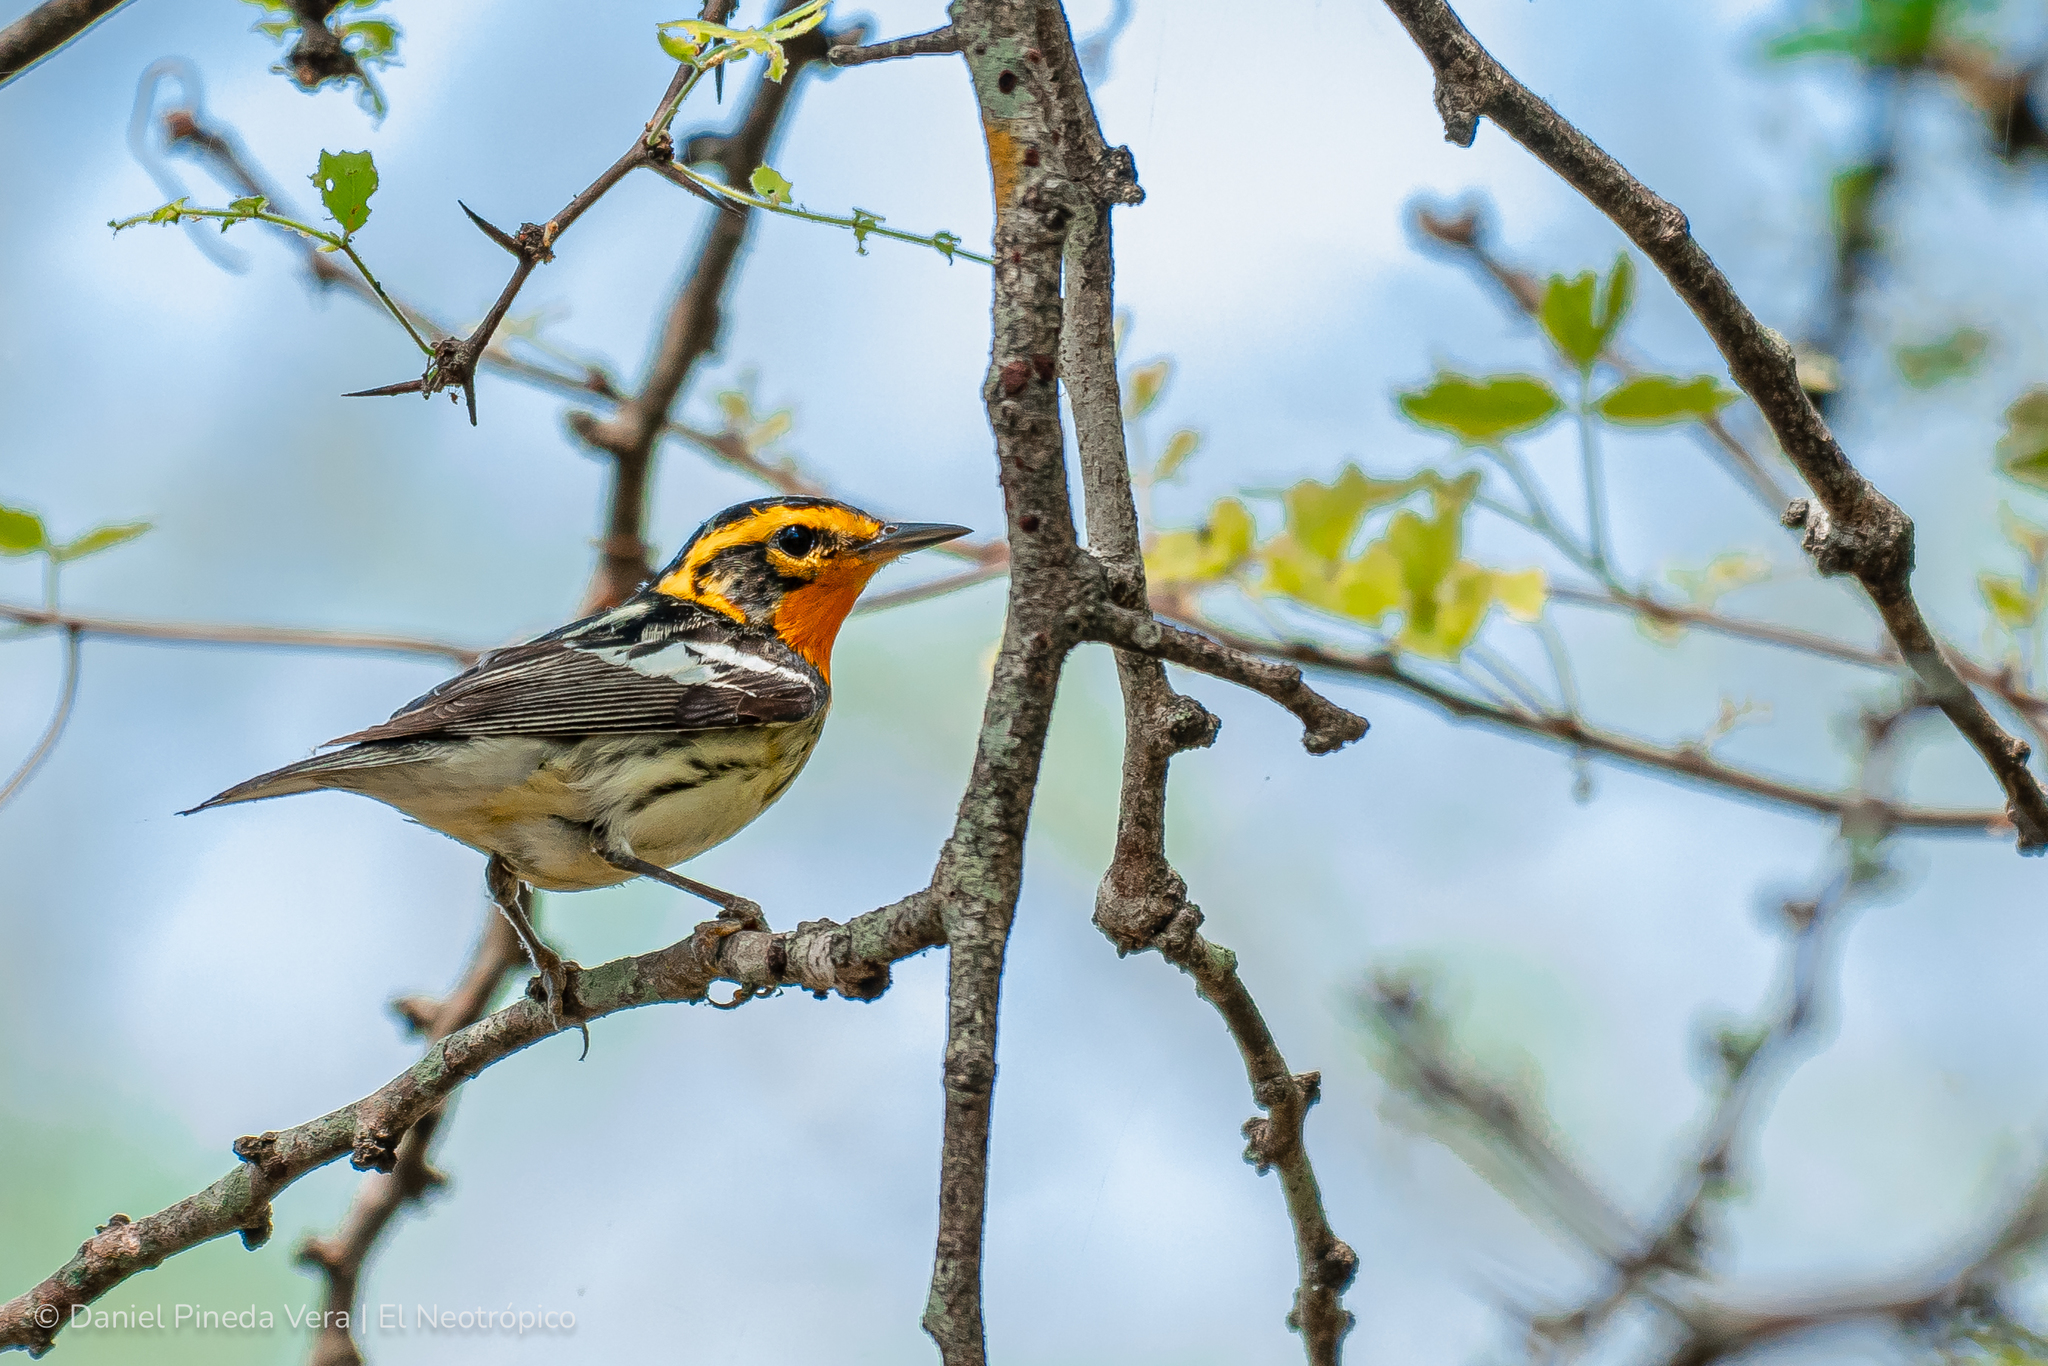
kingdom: Animalia
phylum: Chordata
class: Aves
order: Passeriformes
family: Parulidae
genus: Setophaga
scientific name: Setophaga fusca
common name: Blackburnian warbler
